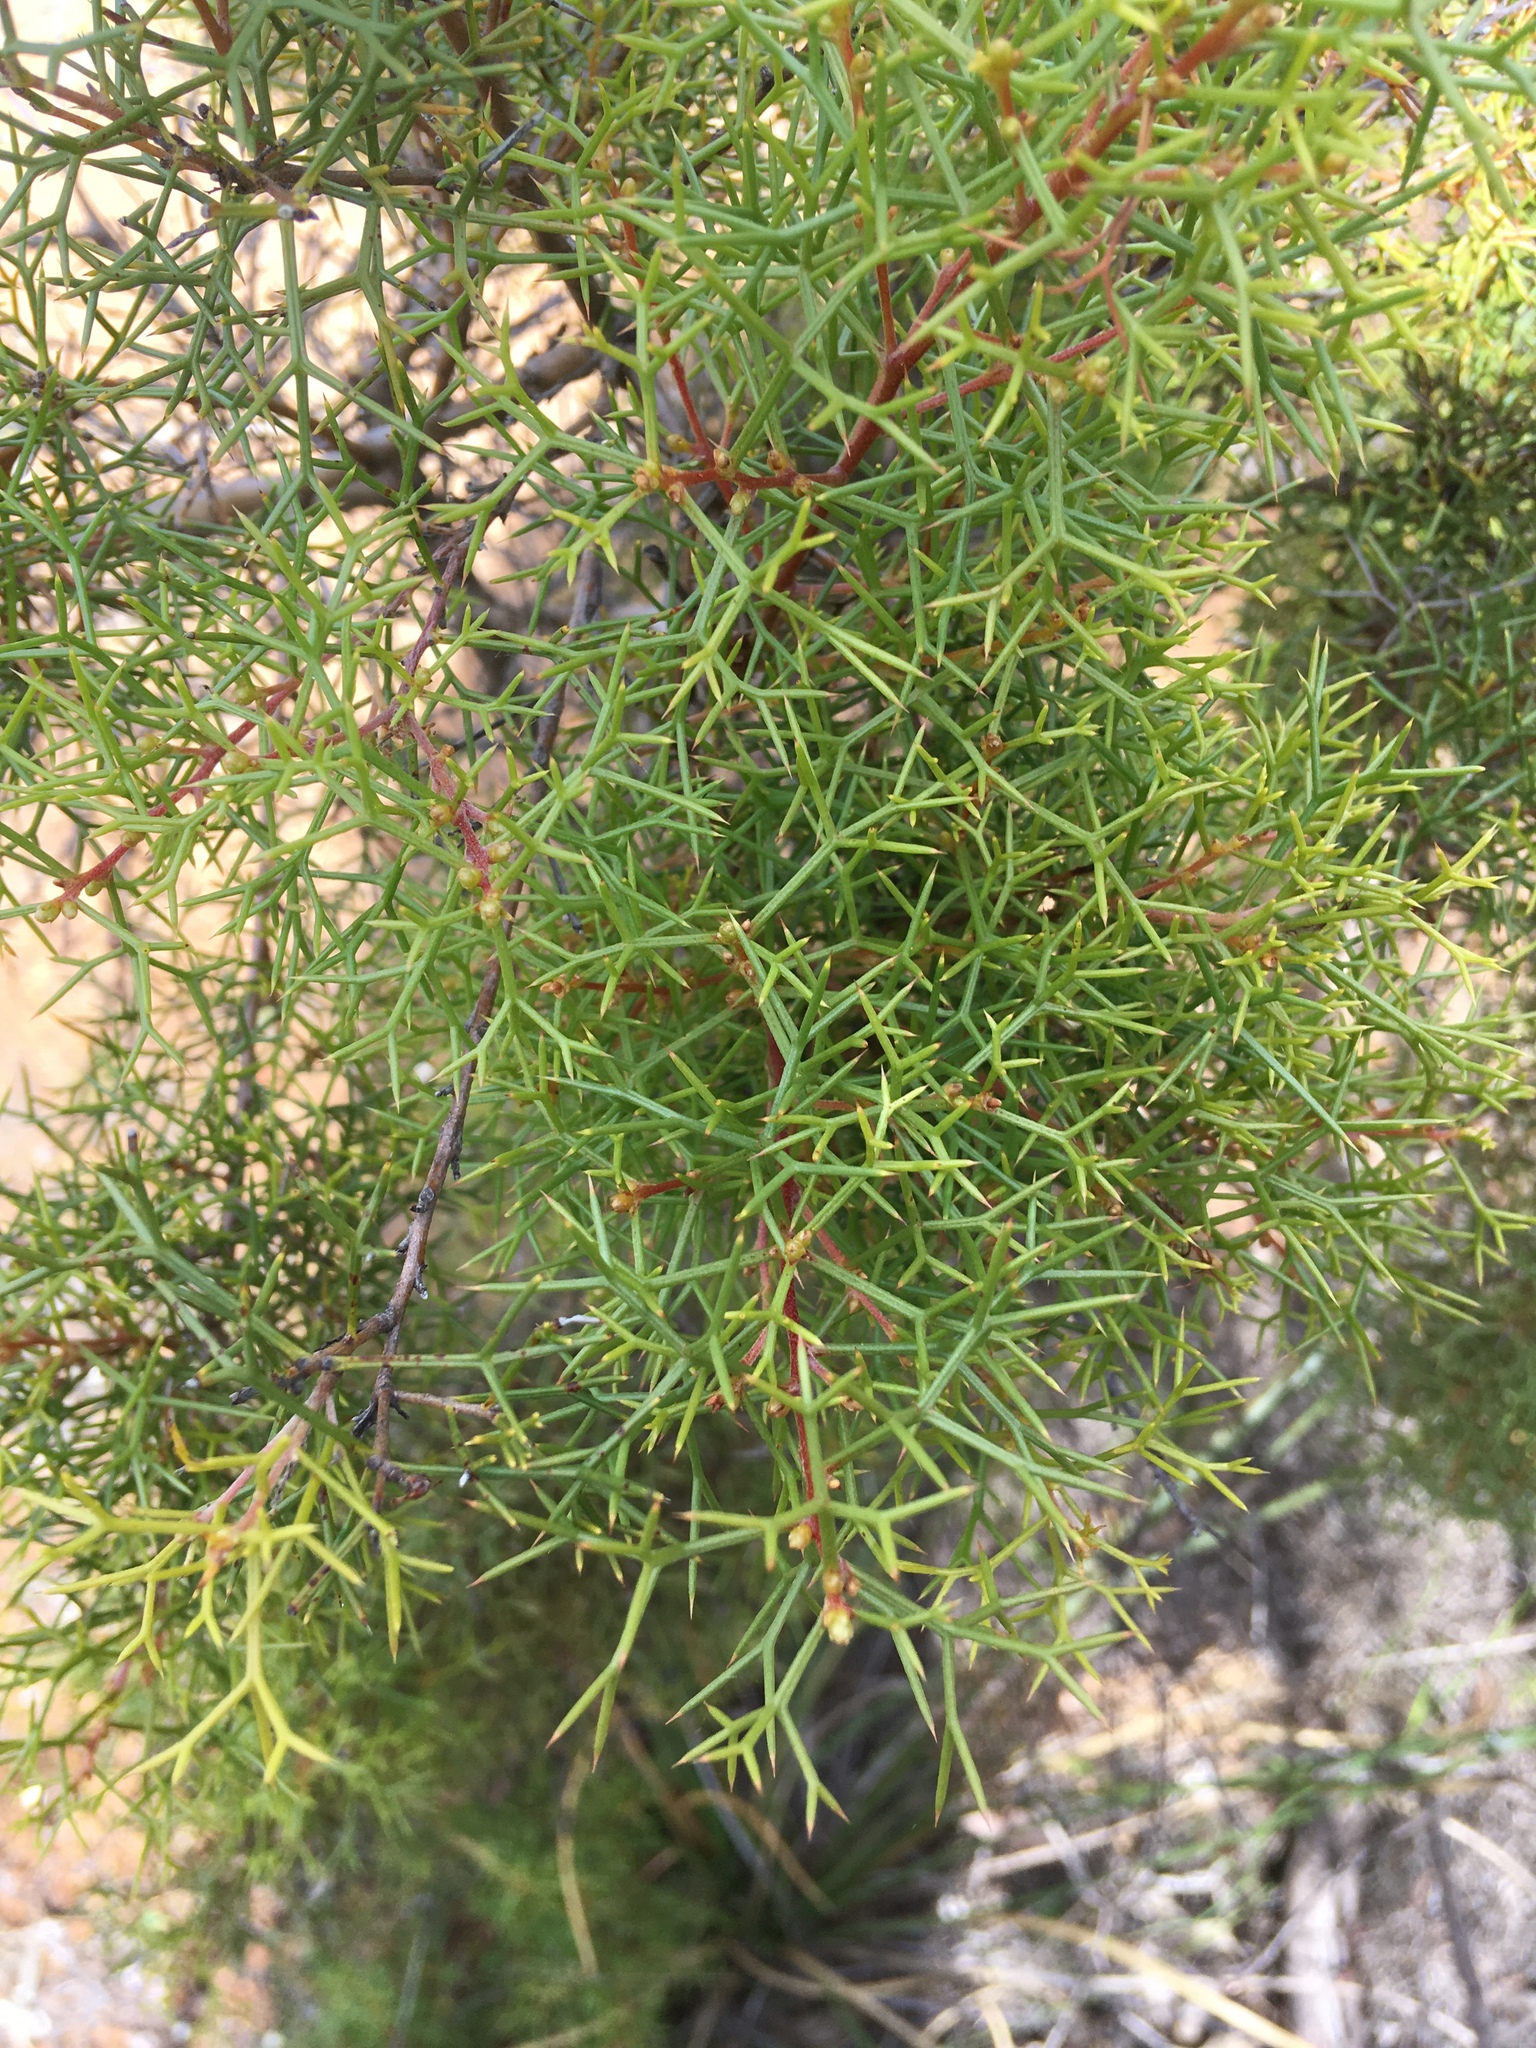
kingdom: Plantae
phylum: Tracheophyta
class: Magnoliopsida
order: Proteales
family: Proteaceae
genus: Hakea
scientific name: Hakea lissocarpha
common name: Honey bush
